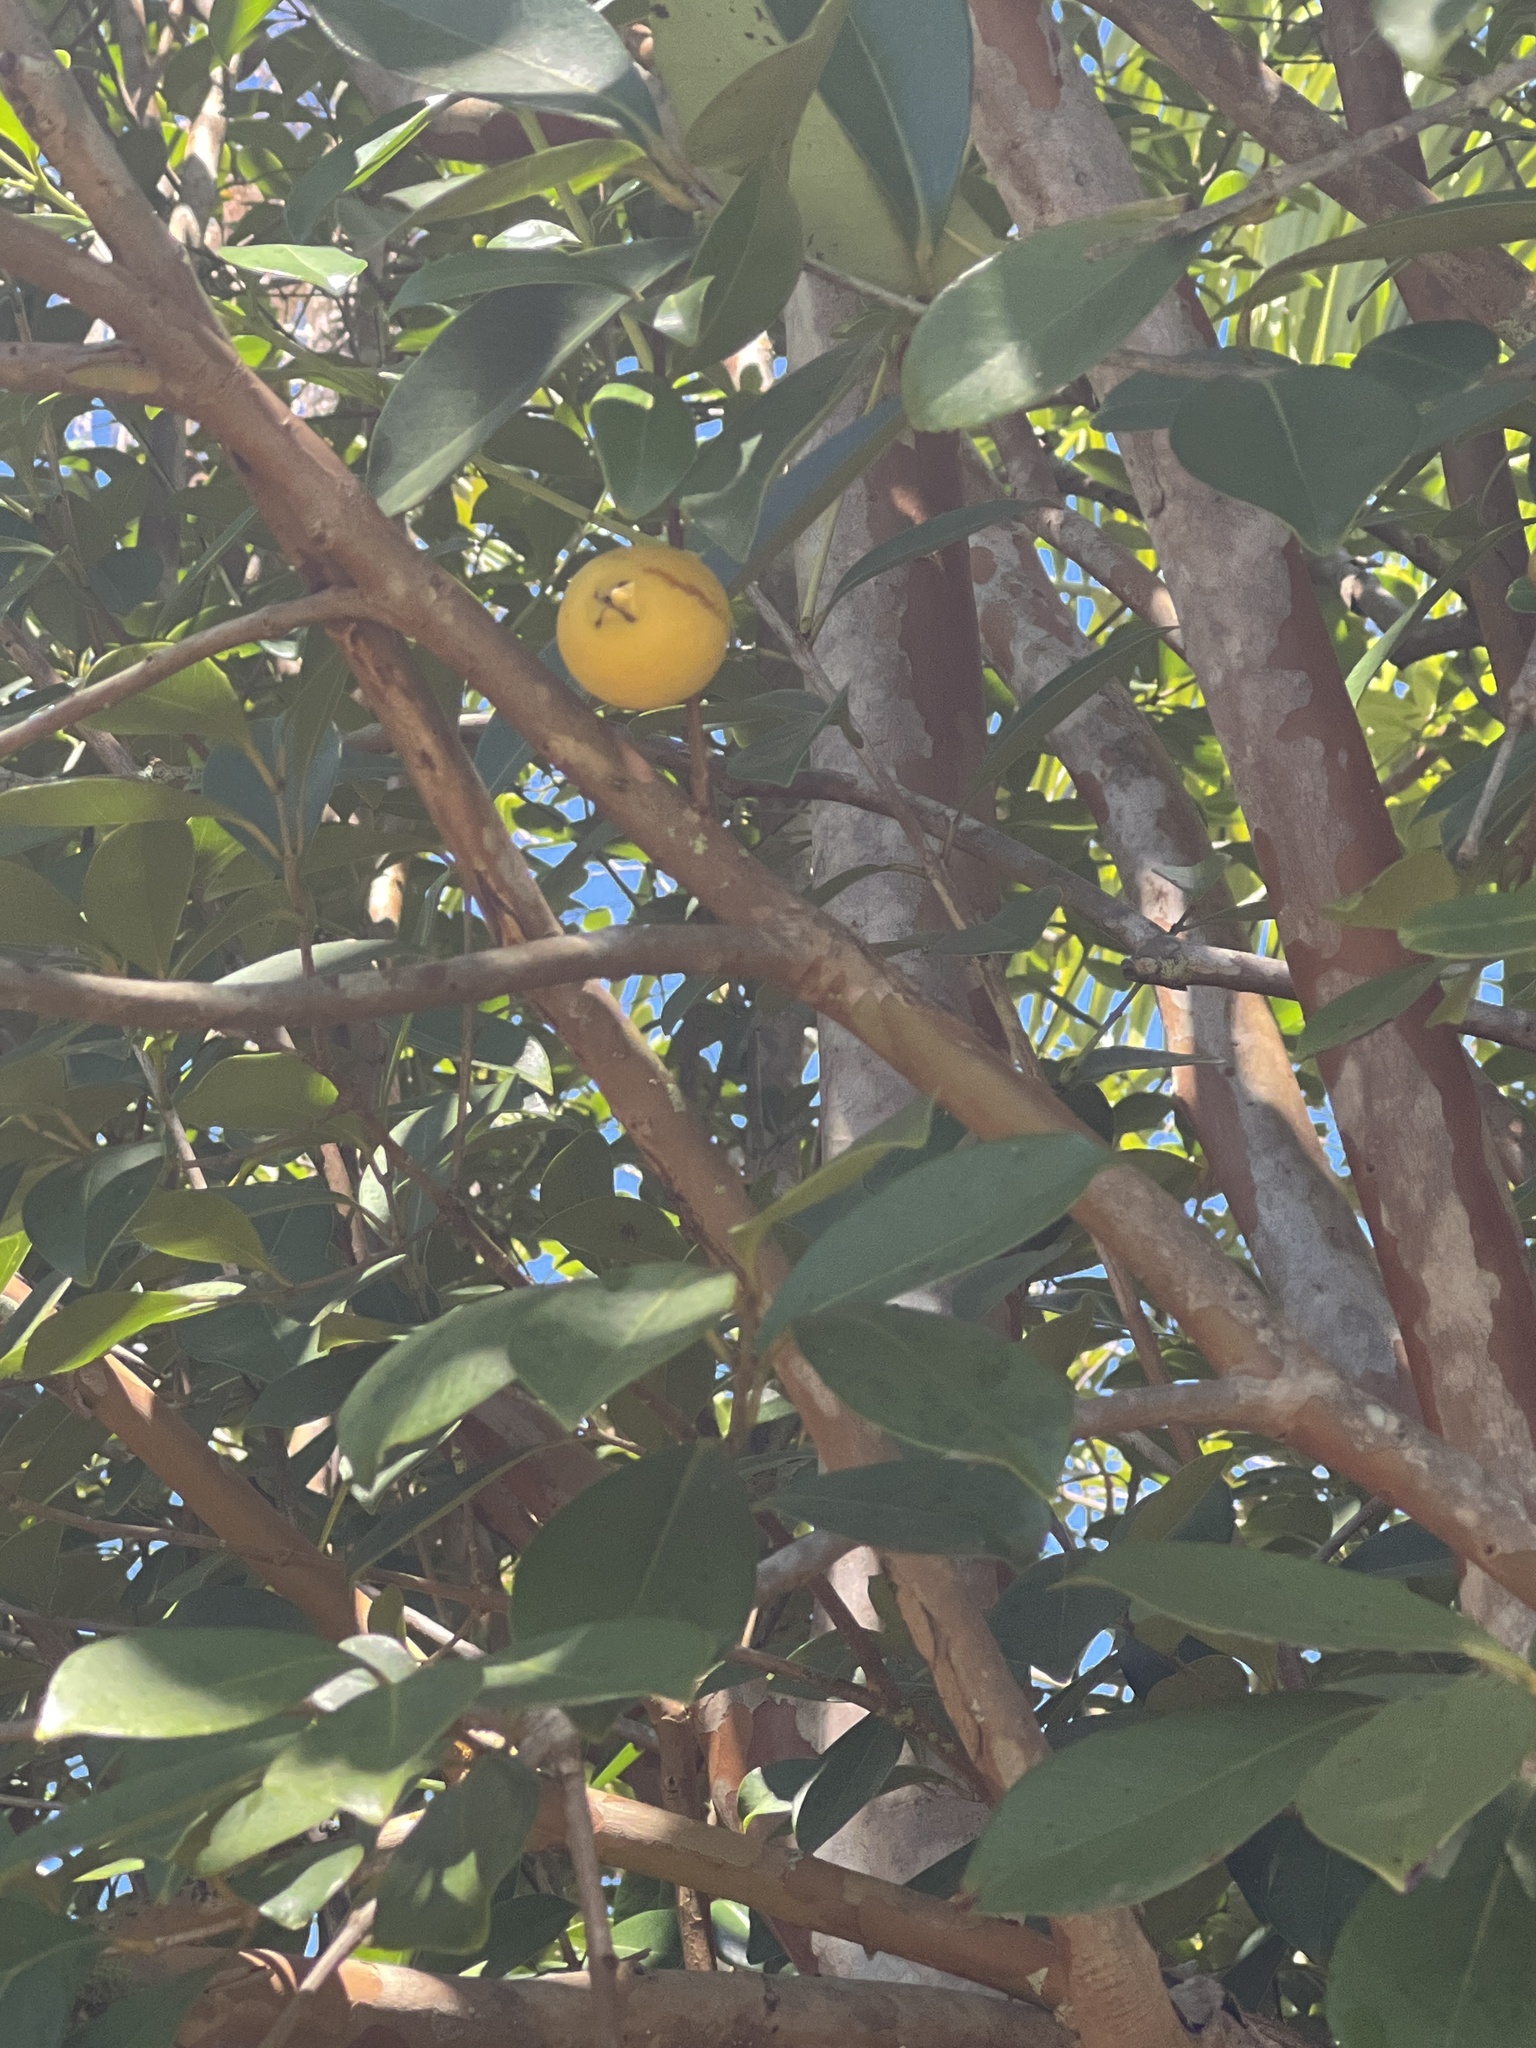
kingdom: Plantae
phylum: Tracheophyta
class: Magnoliopsida
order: Myrtales
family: Myrtaceae
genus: Psidium
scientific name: Psidium cattleianum
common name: Strawberry guava
